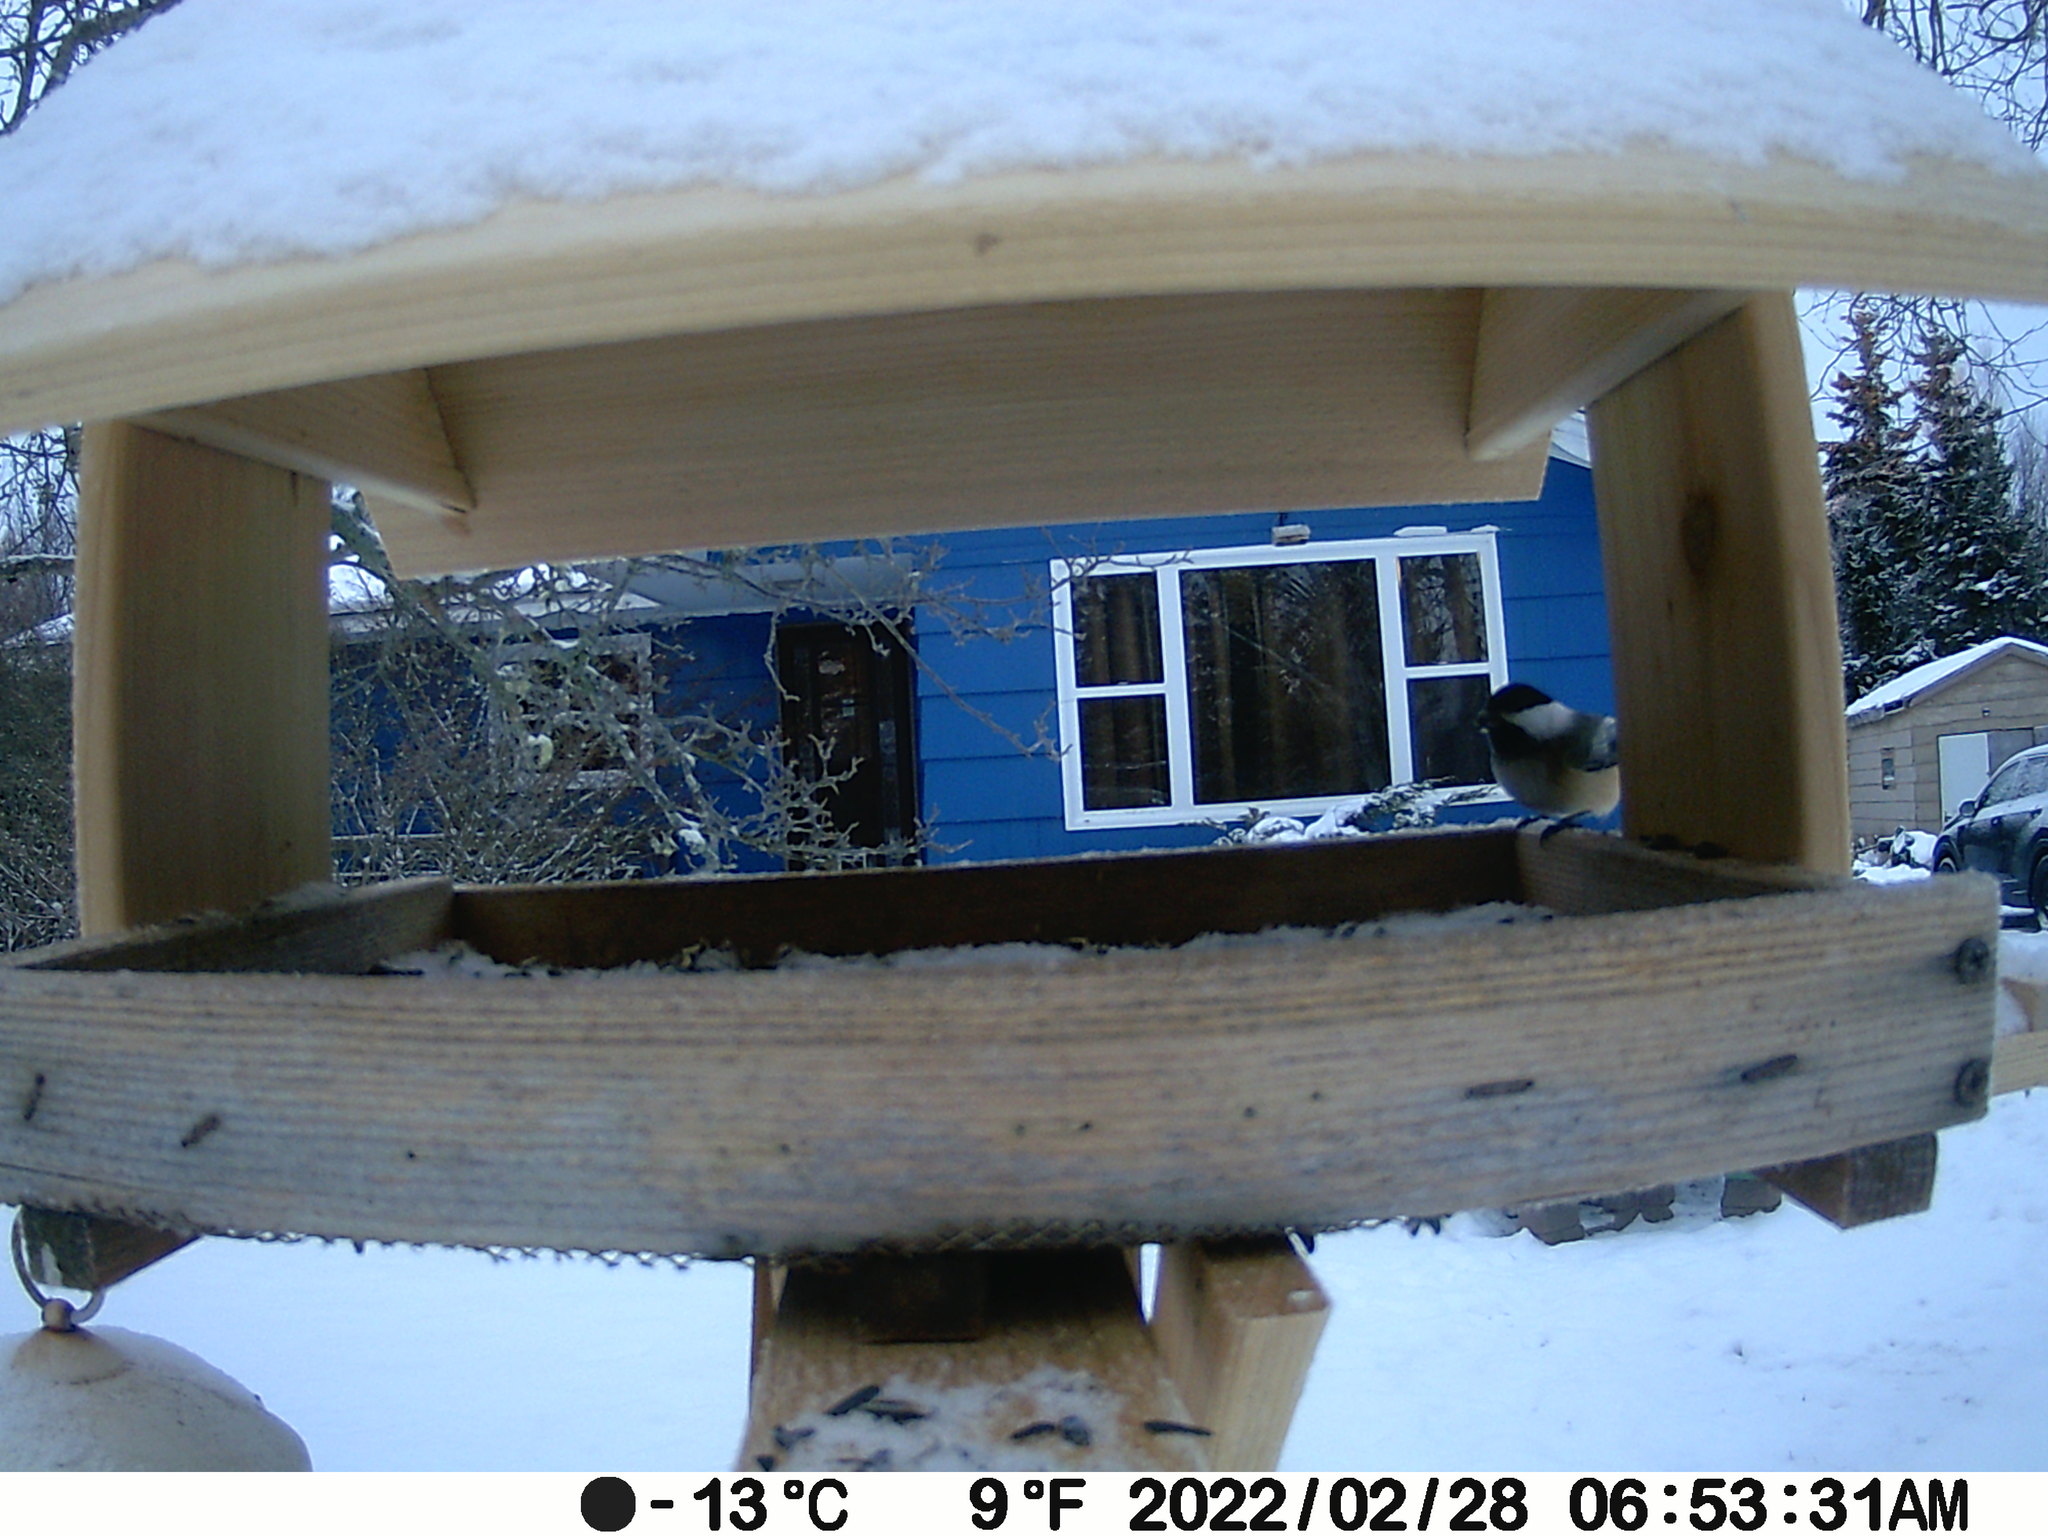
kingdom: Animalia
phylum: Chordata
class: Aves
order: Passeriformes
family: Paridae
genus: Poecile
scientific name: Poecile atricapillus
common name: Black-capped chickadee
